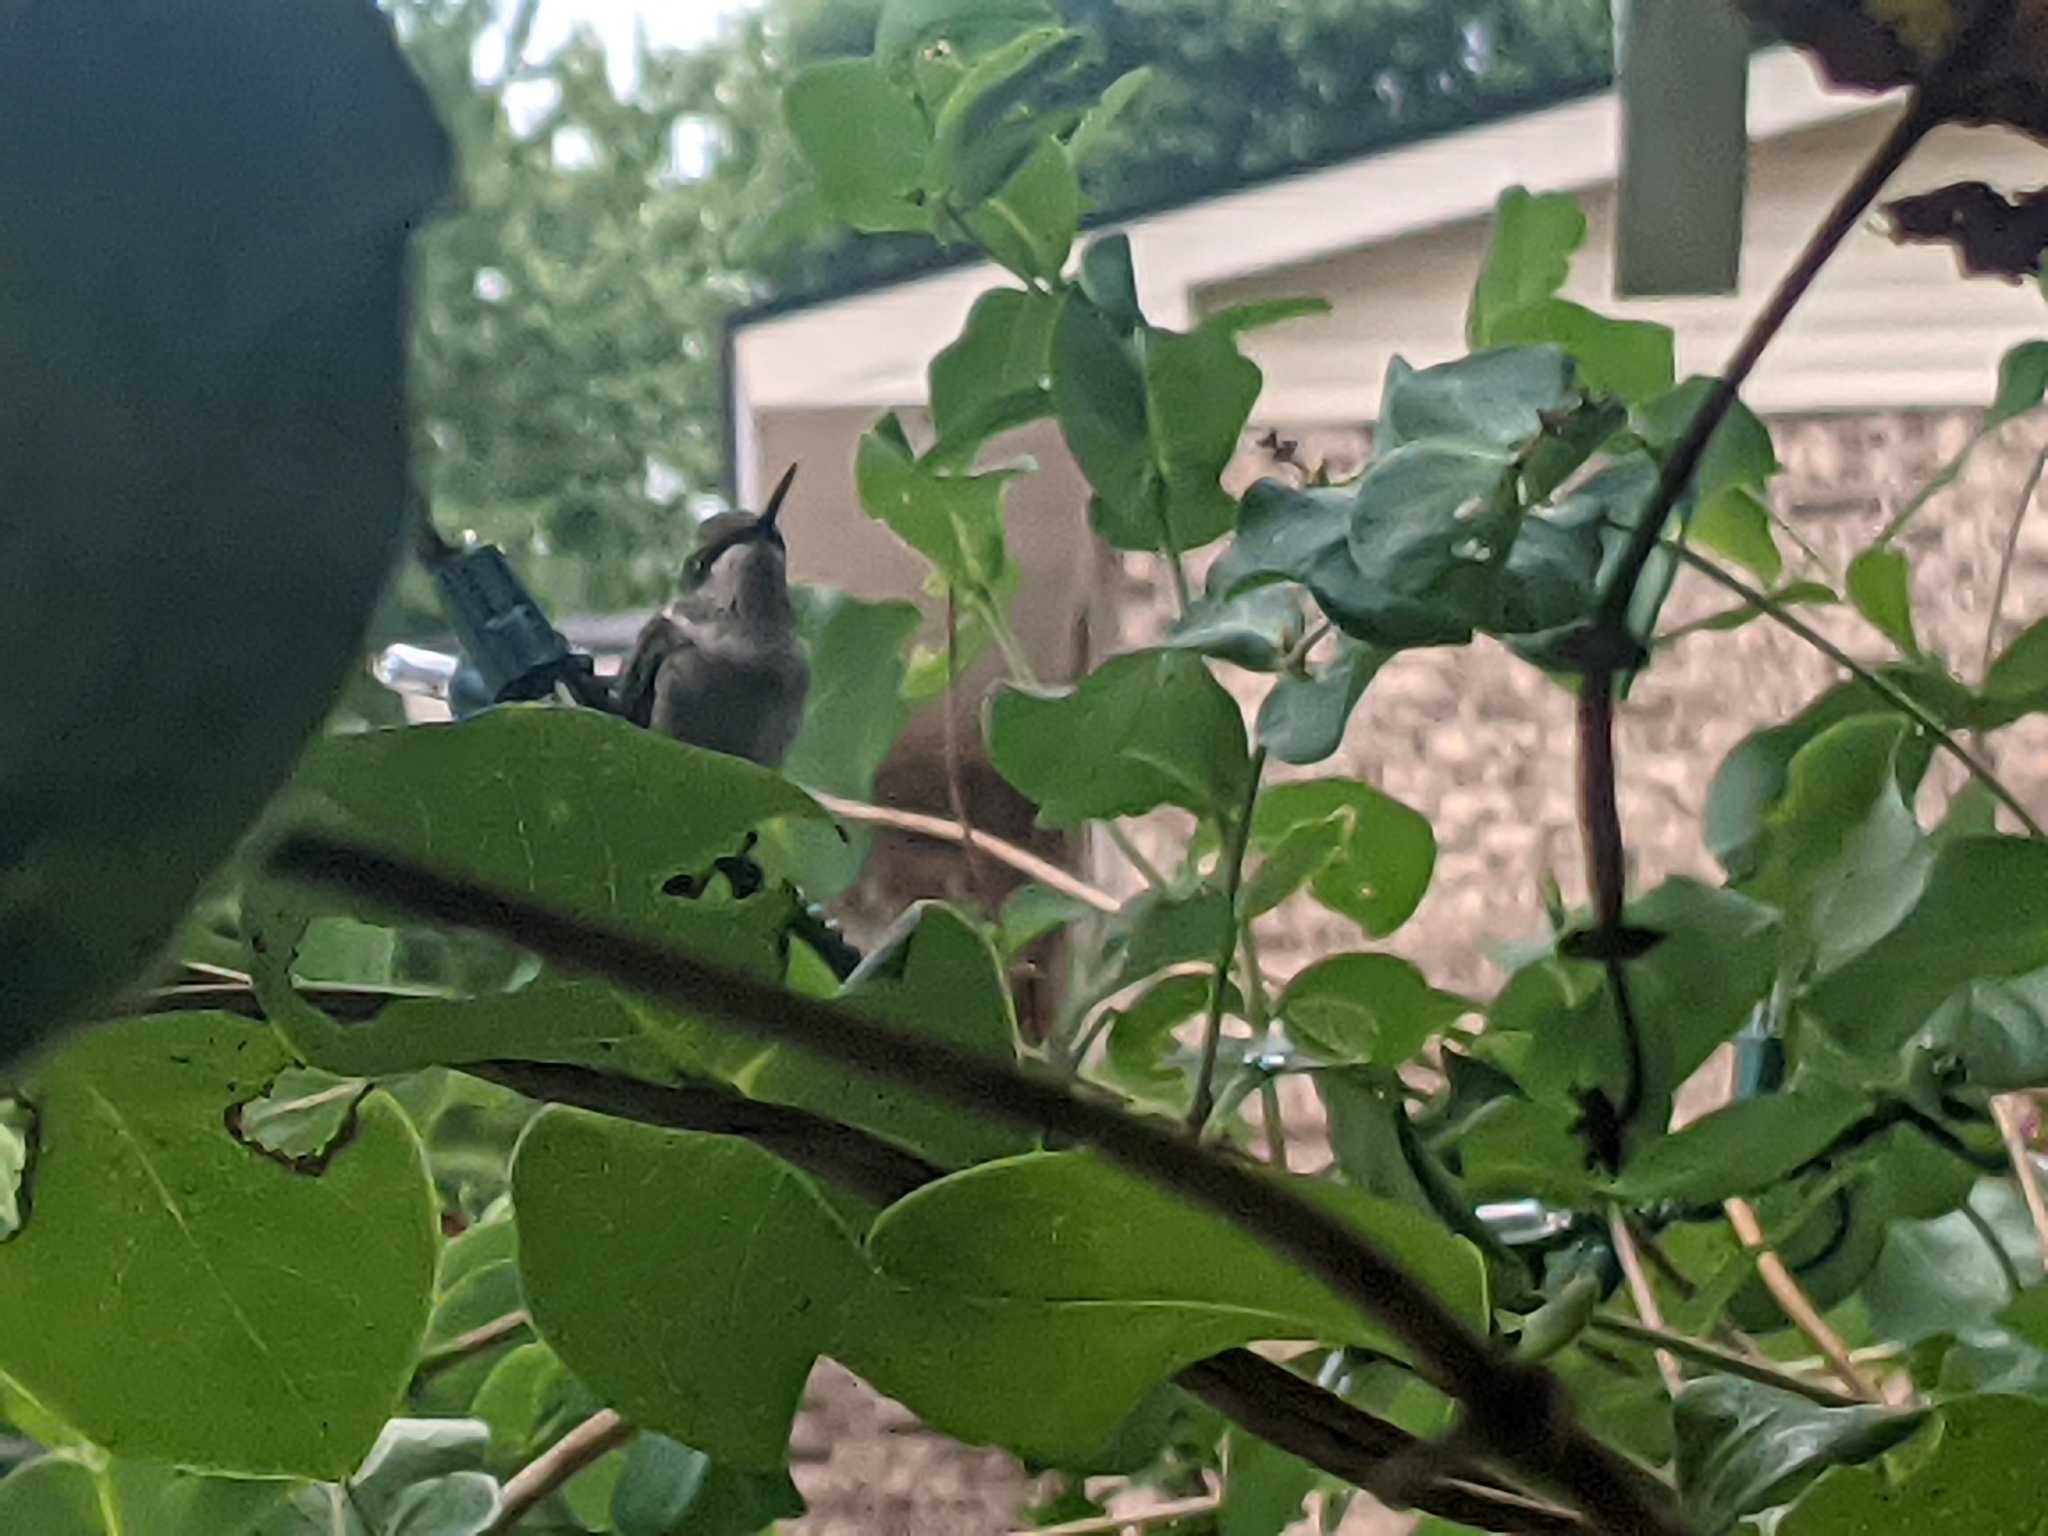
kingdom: Animalia
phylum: Chordata
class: Aves
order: Apodiformes
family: Trochilidae
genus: Archilochus
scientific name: Archilochus colubris
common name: Ruby-throated hummingbird
